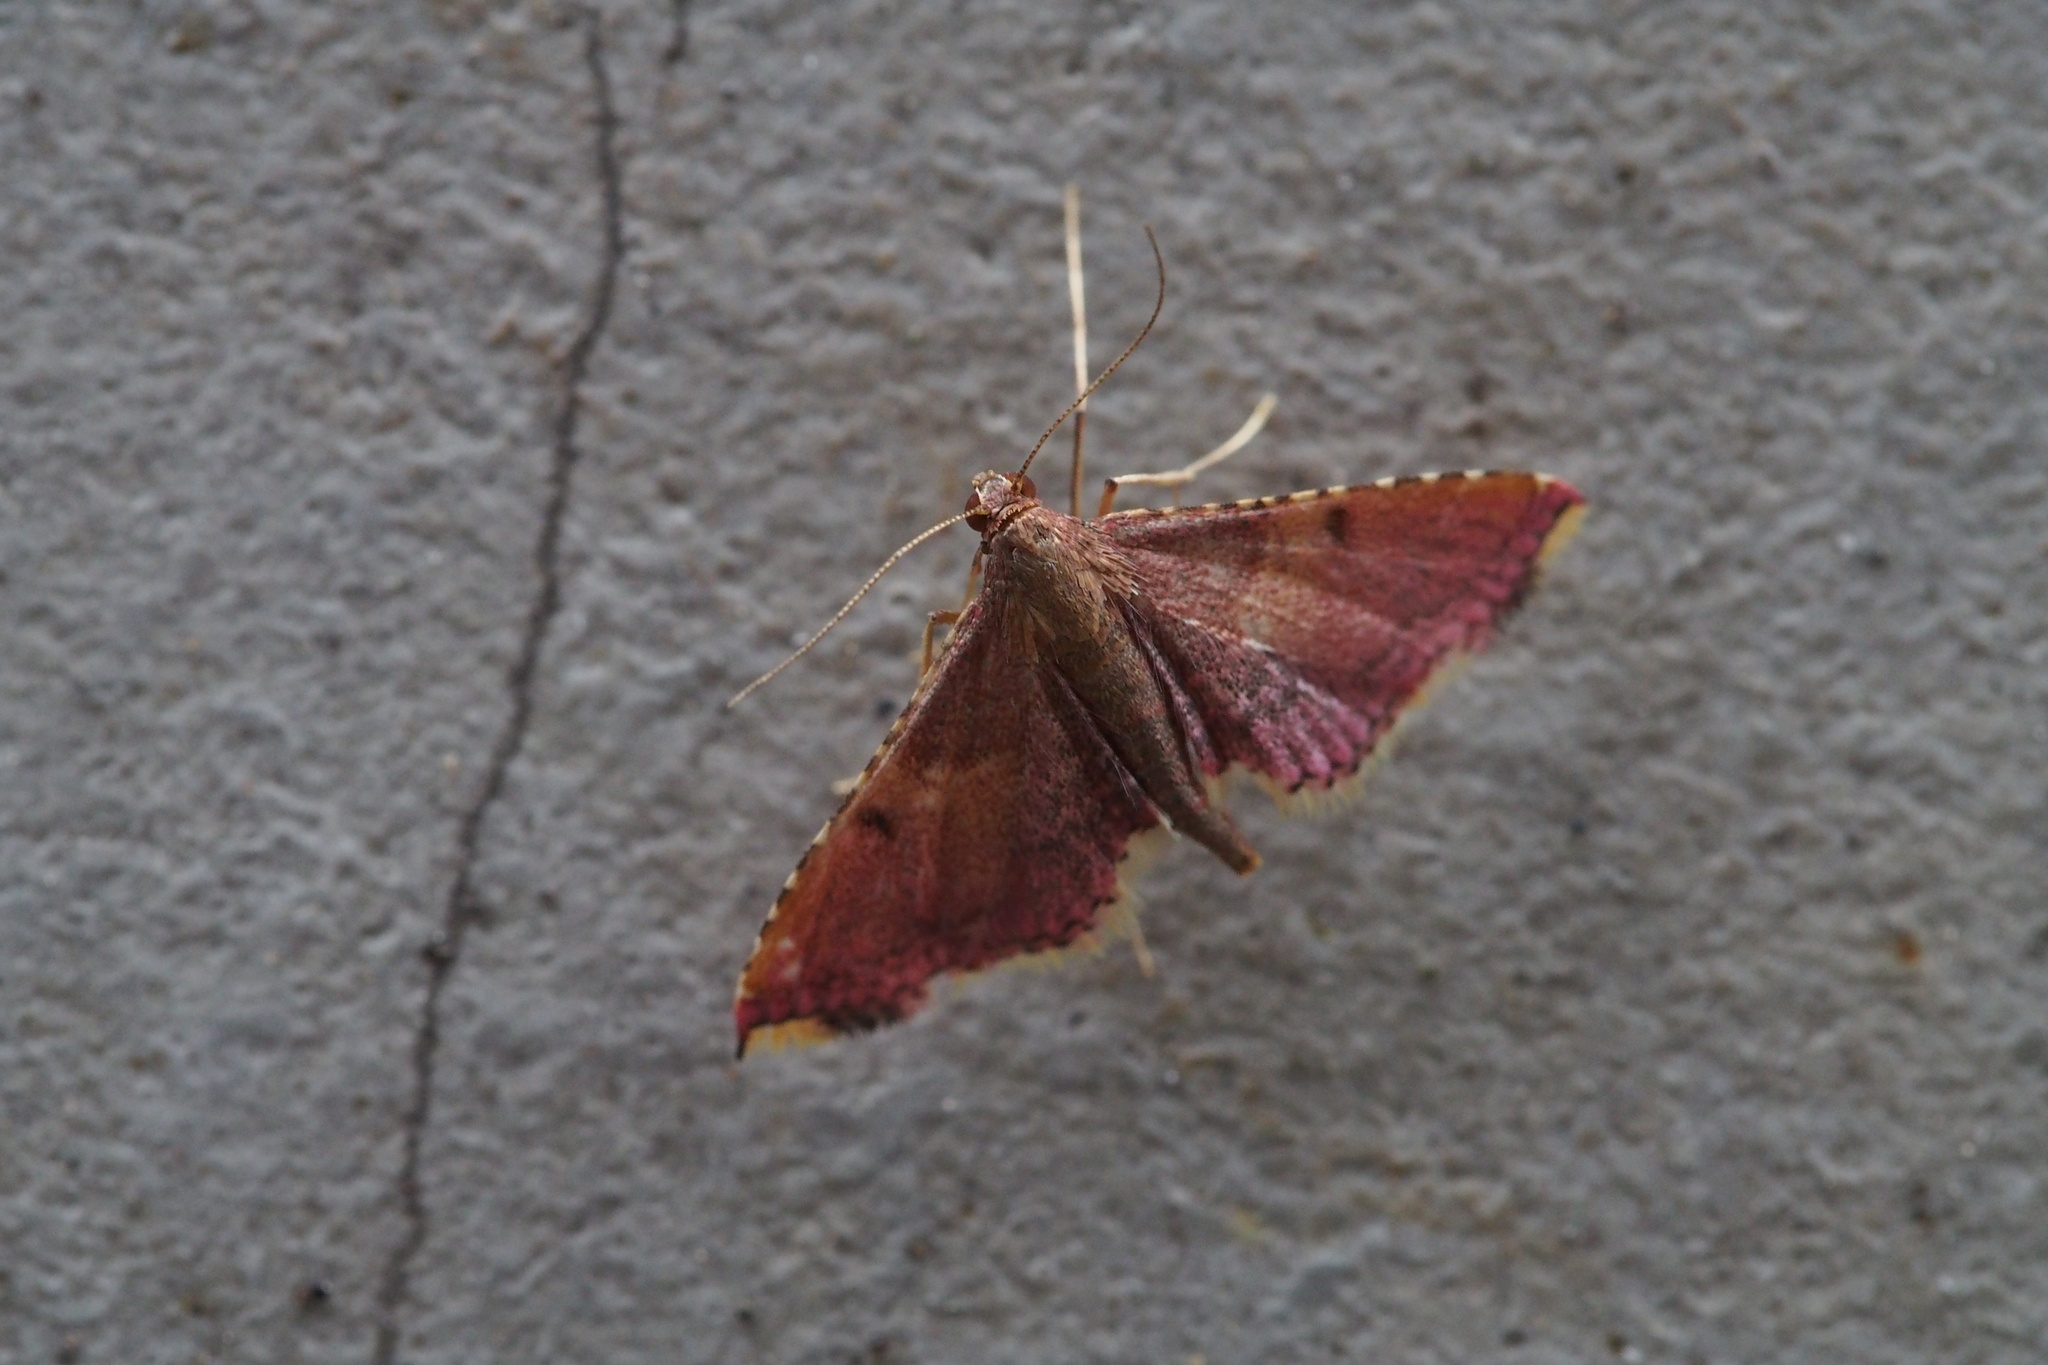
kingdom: Animalia
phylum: Arthropoda
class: Insecta
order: Lepidoptera
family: Pyralidae
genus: Endotricha
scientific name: Endotricha olivacealis
